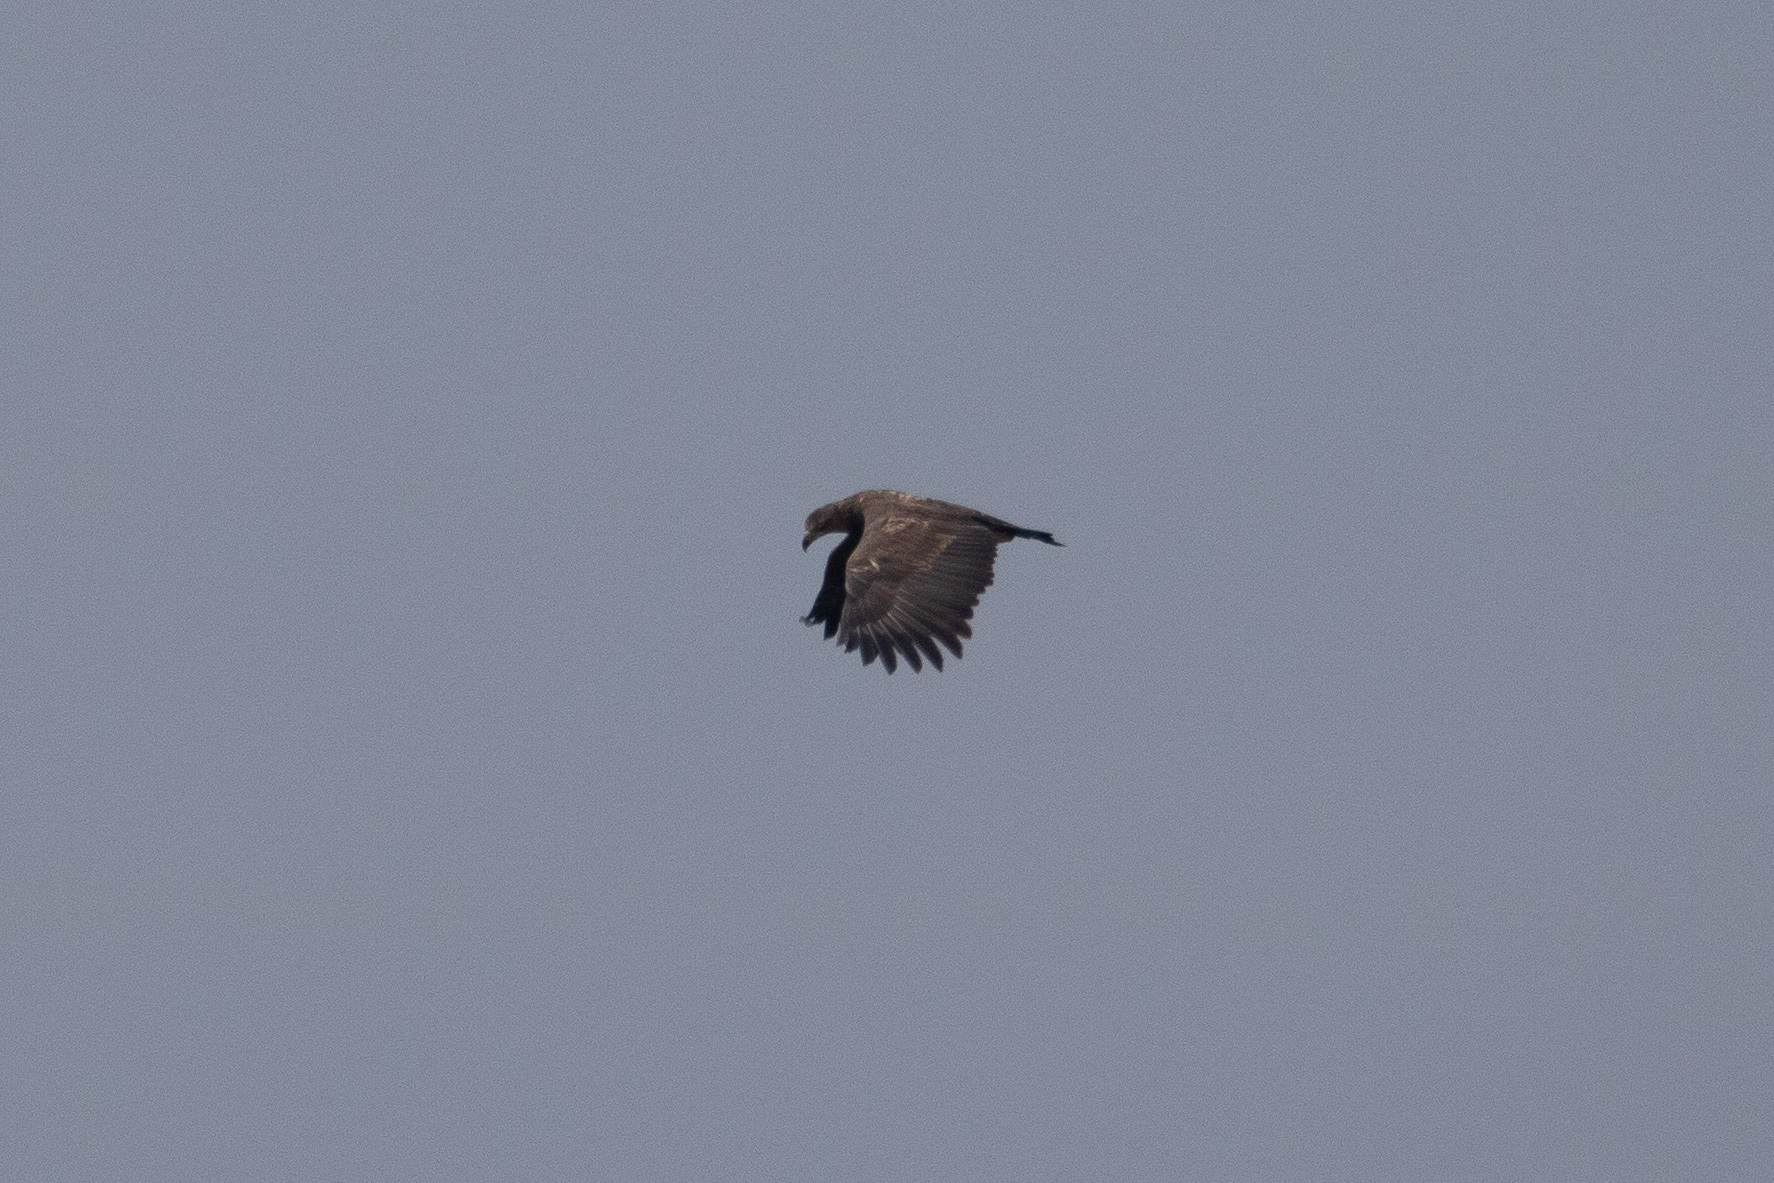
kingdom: Animalia
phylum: Chordata
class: Aves
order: Accipitriformes
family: Accipitridae
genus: Haliaeetus
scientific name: Haliaeetus albicilla
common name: White-tailed eagle
